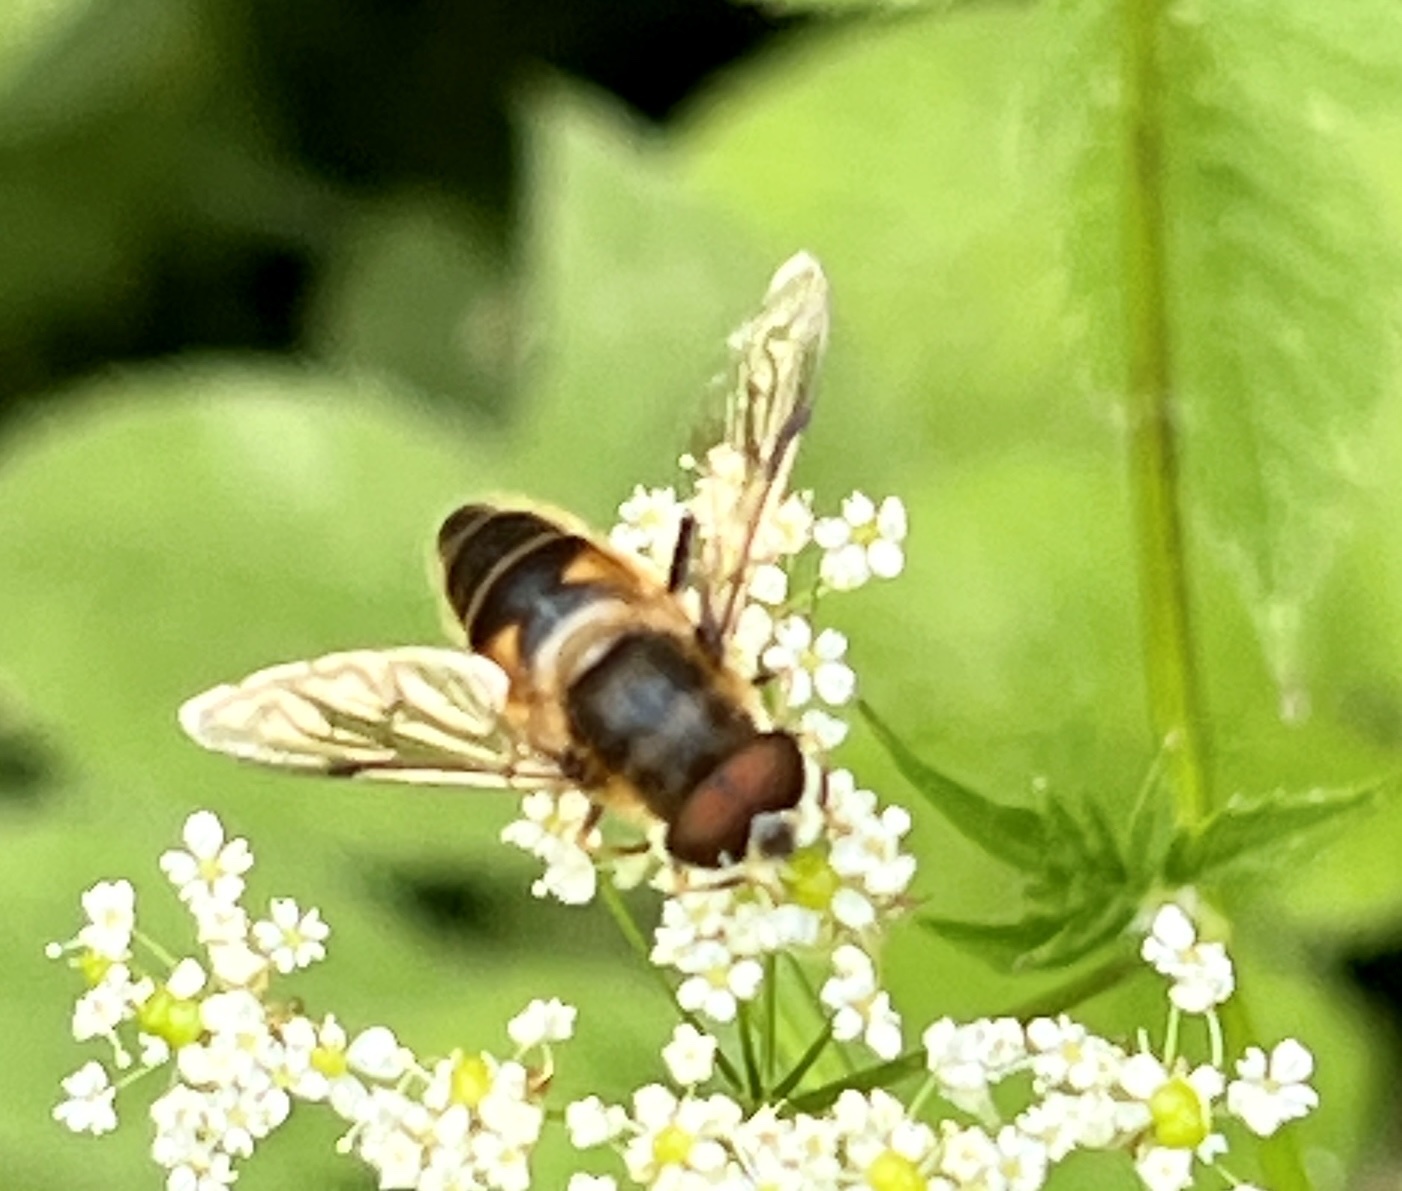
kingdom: Animalia
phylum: Arthropoda
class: Insecta
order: Diptera
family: Syrphidae
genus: Eristalis
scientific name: Eristalis pertinax
